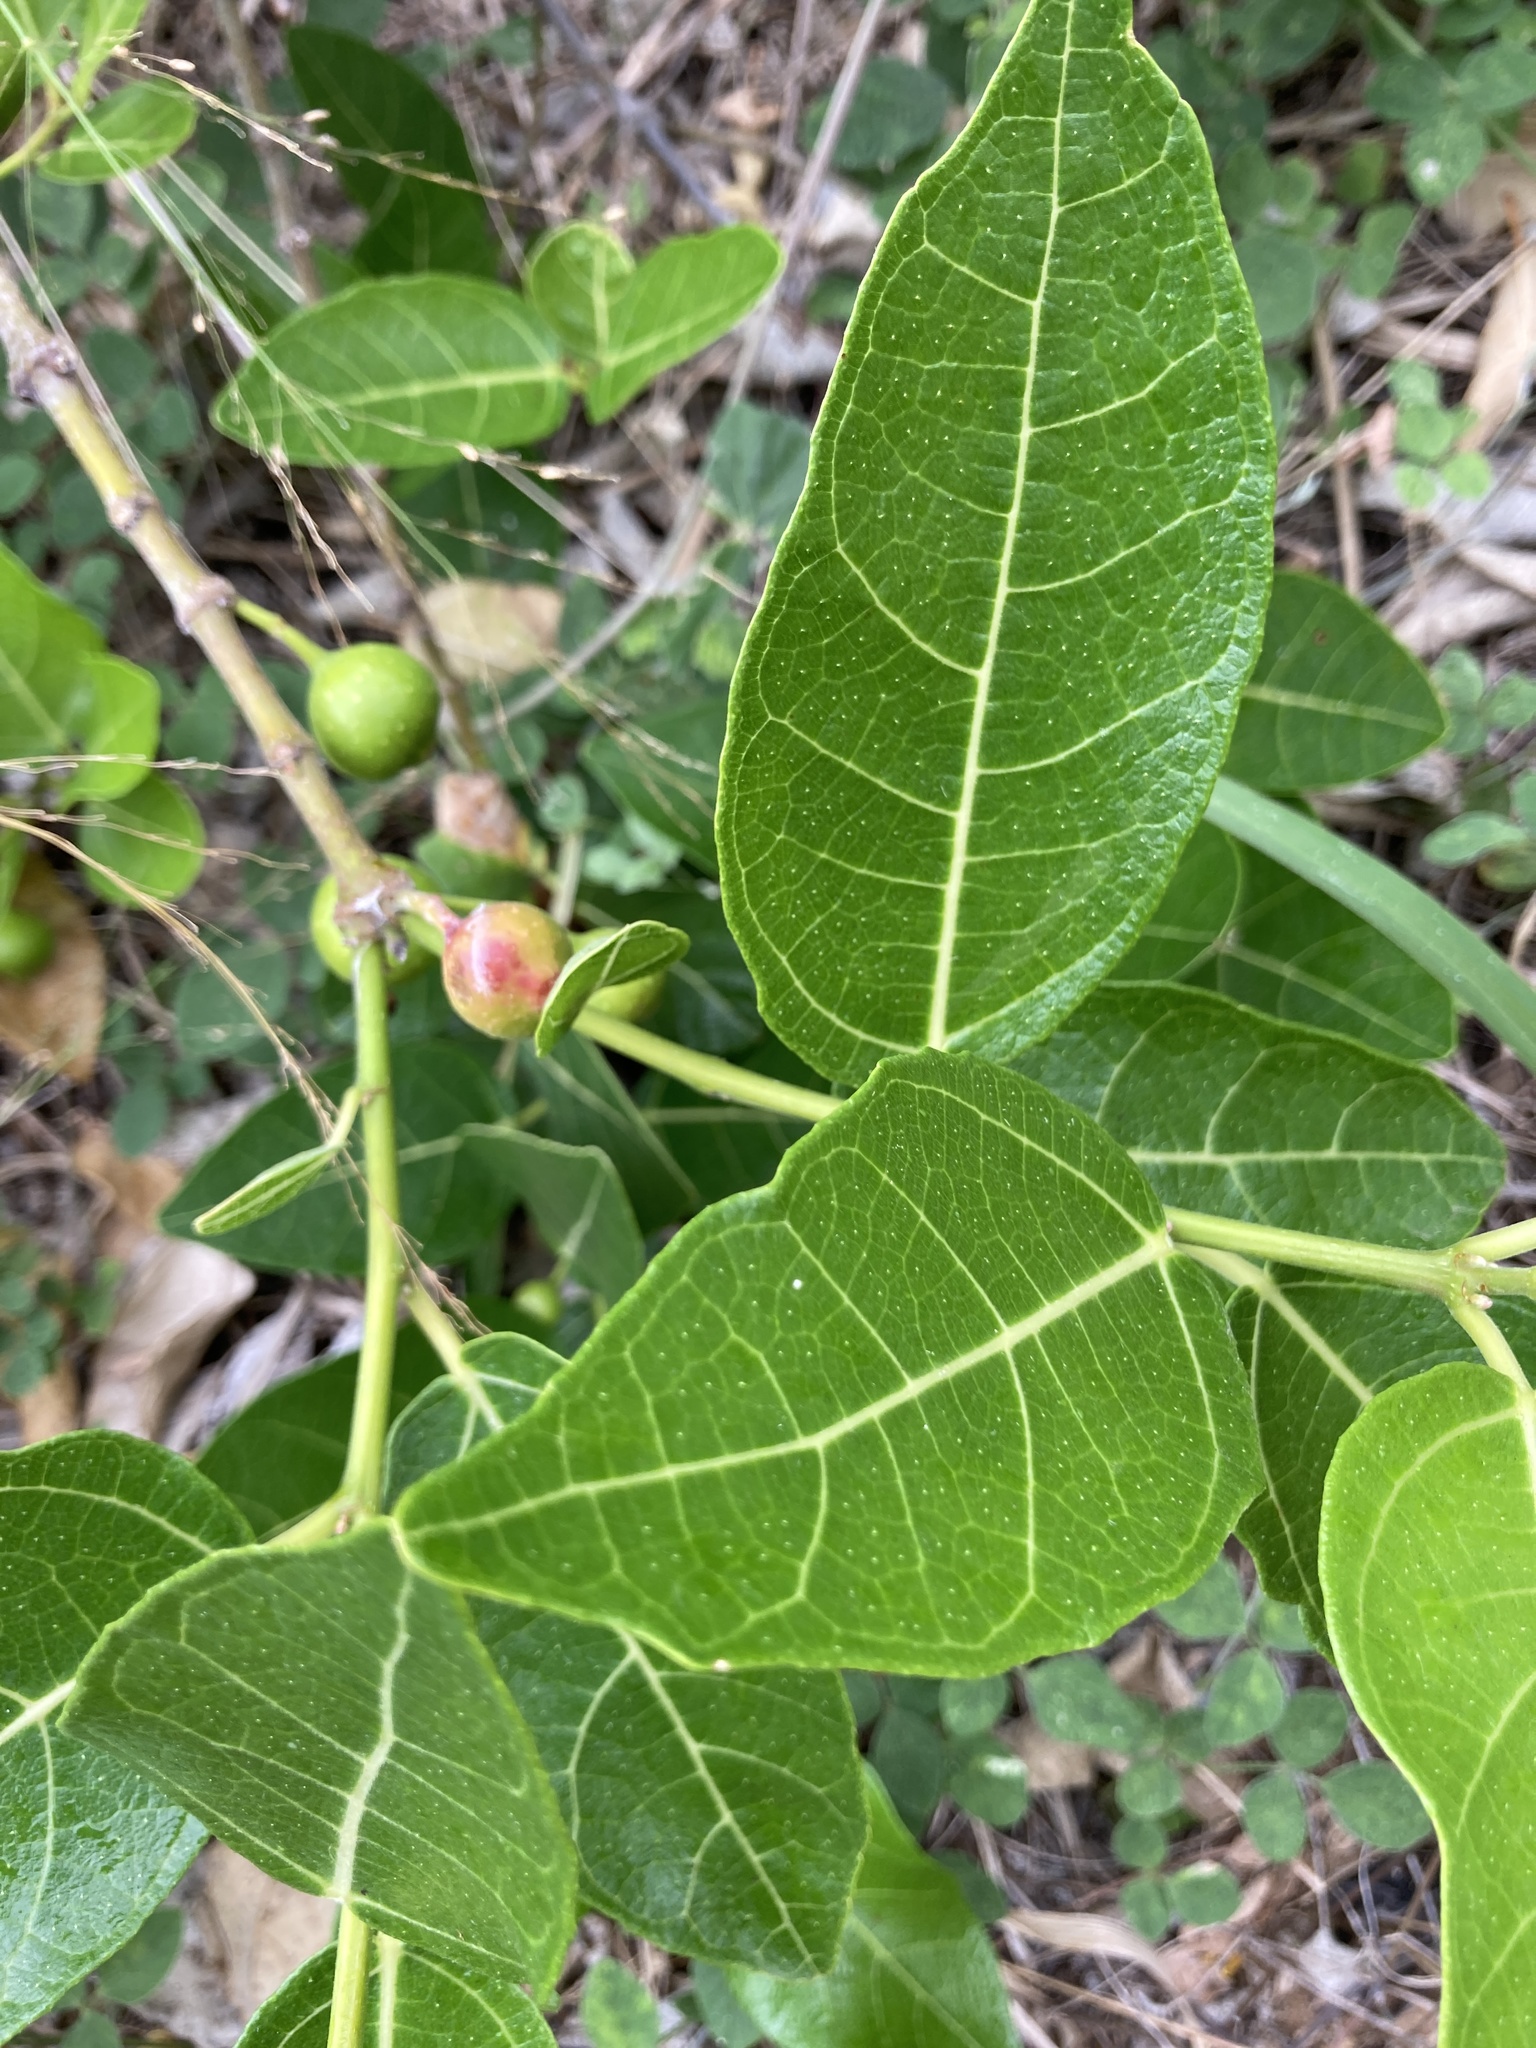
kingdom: Plantae
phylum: Tracheophyta
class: Magnoliopsida
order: Rosales
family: Moraceae
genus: Ficus
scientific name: Ficus opposita
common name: Figwood
